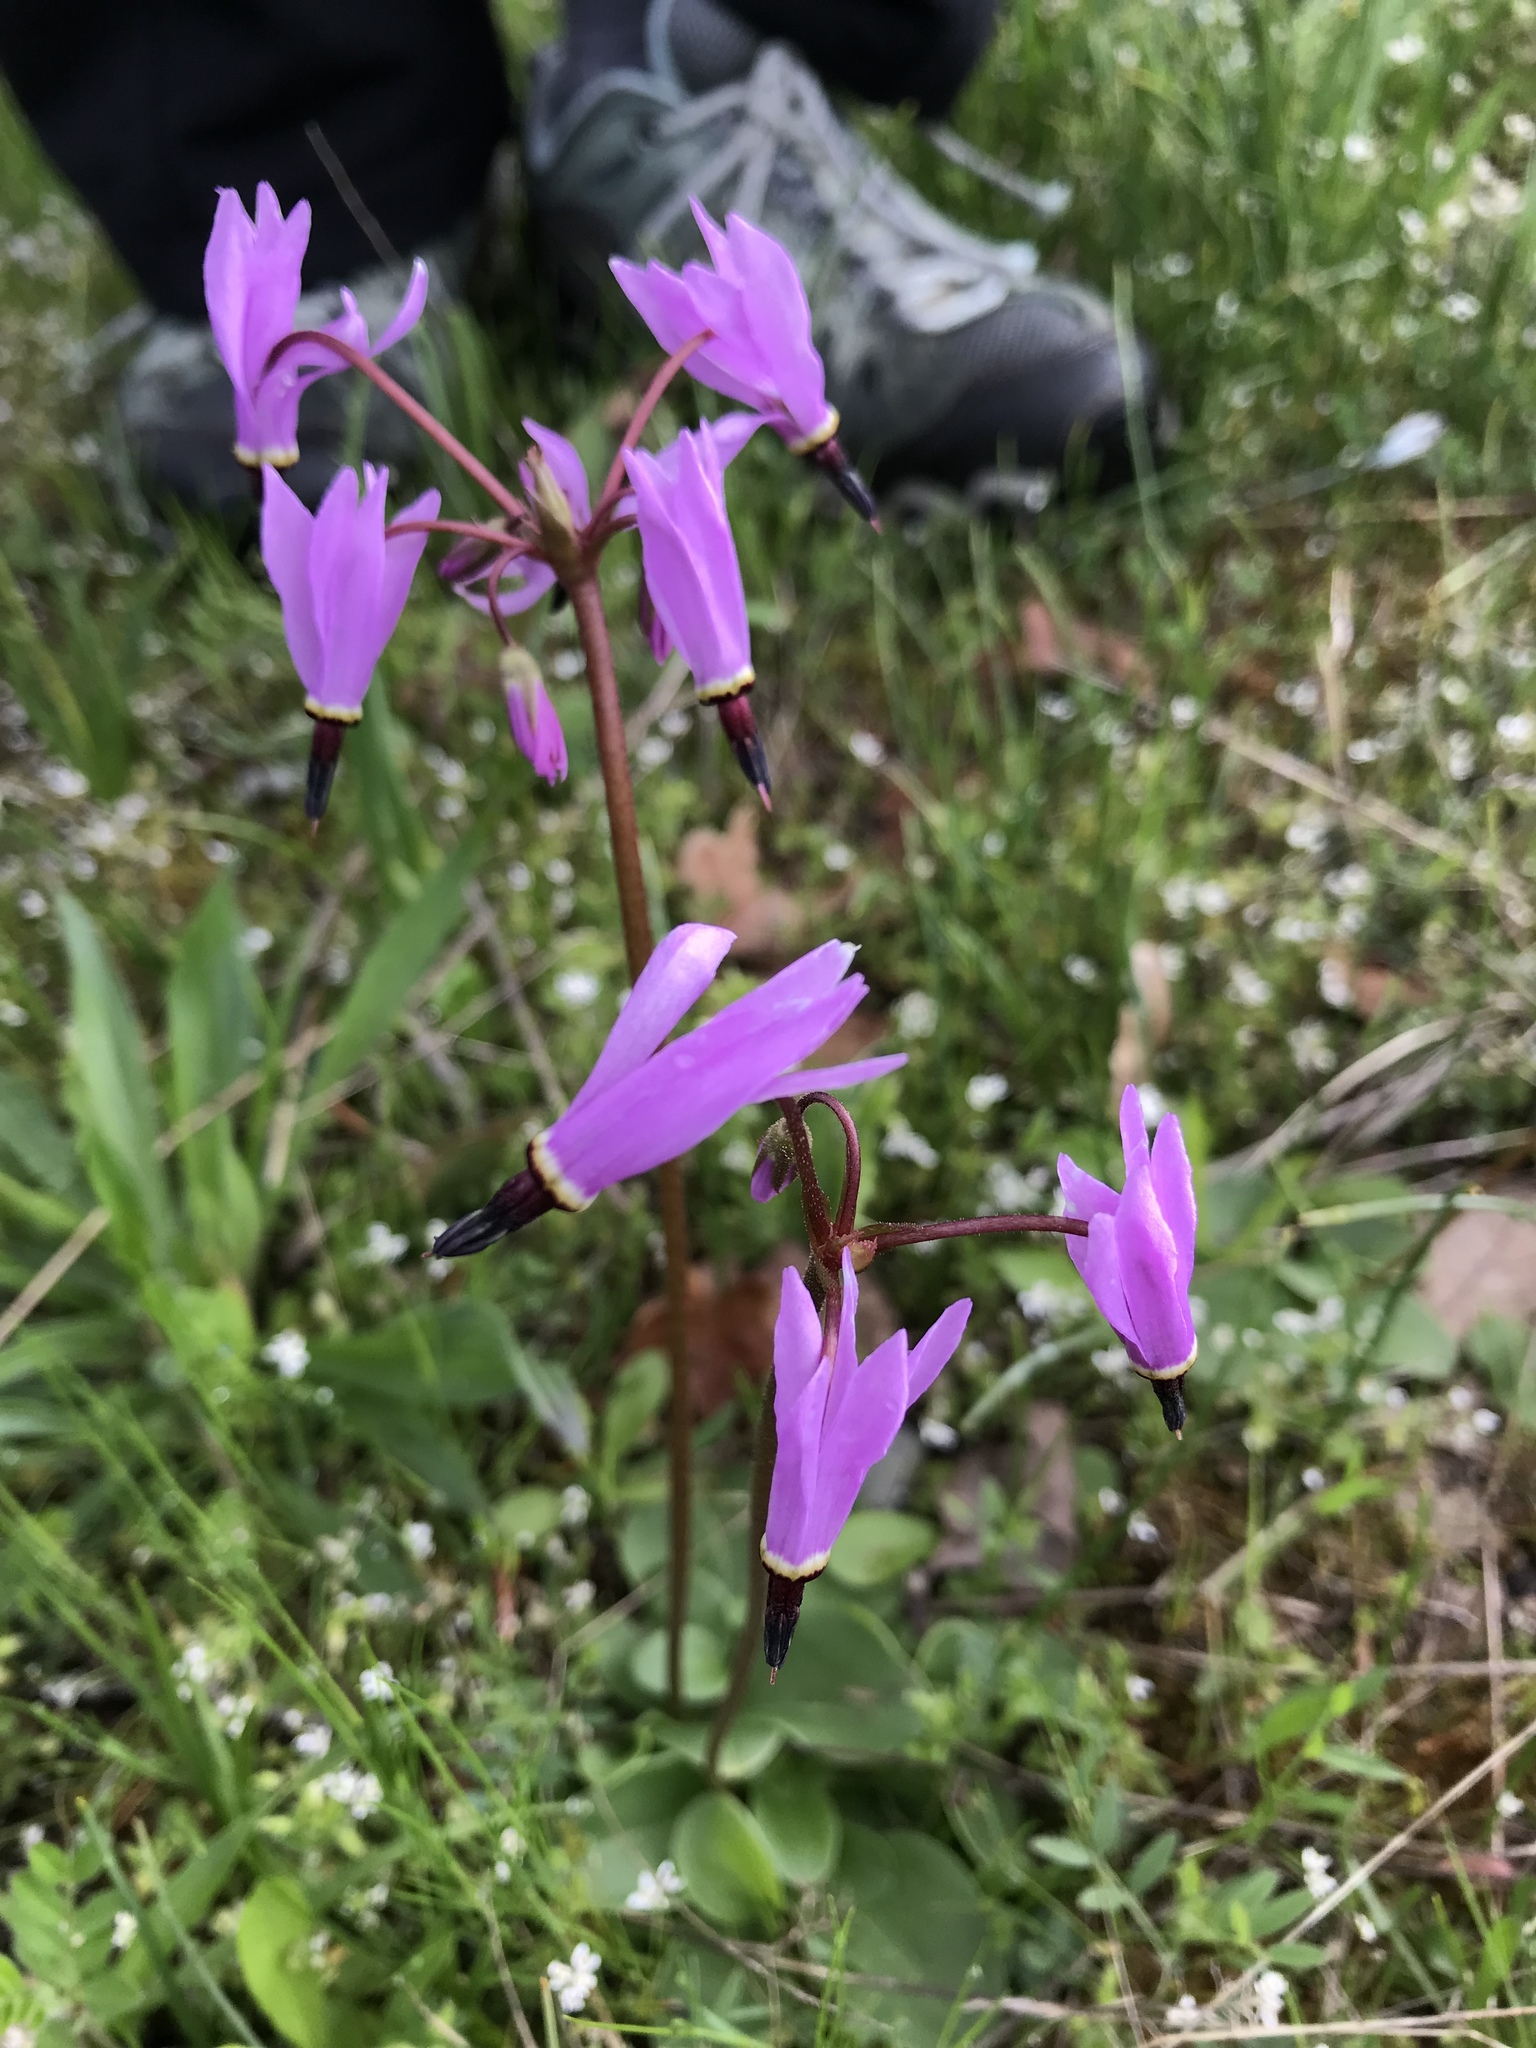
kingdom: Plantae
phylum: Tracheophyta
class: Magnoliopsida
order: Ericales
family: Primulaceae
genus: Dodecatheon
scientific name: Dodecatheon hendersonii
